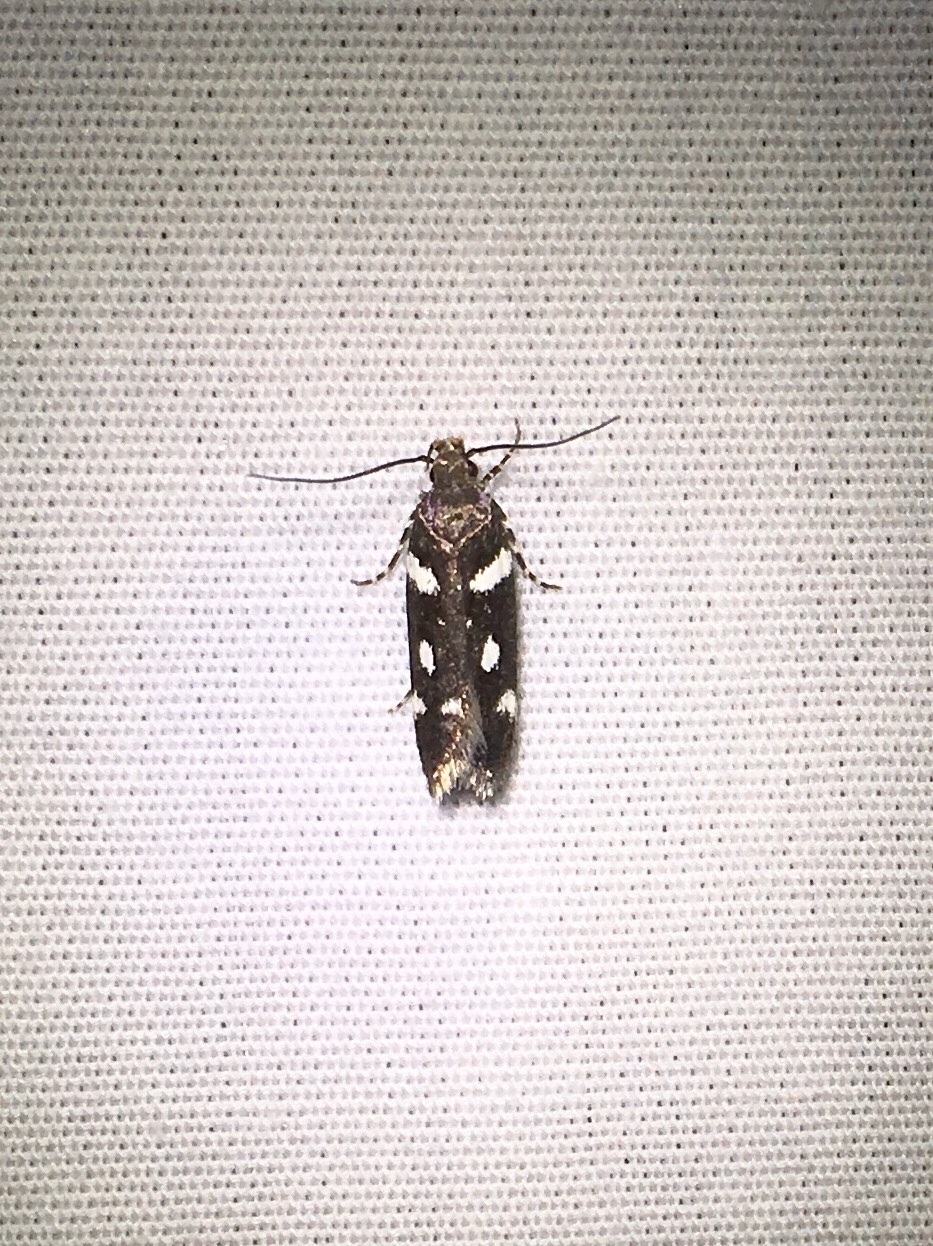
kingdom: Animalia
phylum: Arthropoda
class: Insecta
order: Lepidoptera
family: Gelechiidae
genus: Aroga
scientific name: Aroga compositella
